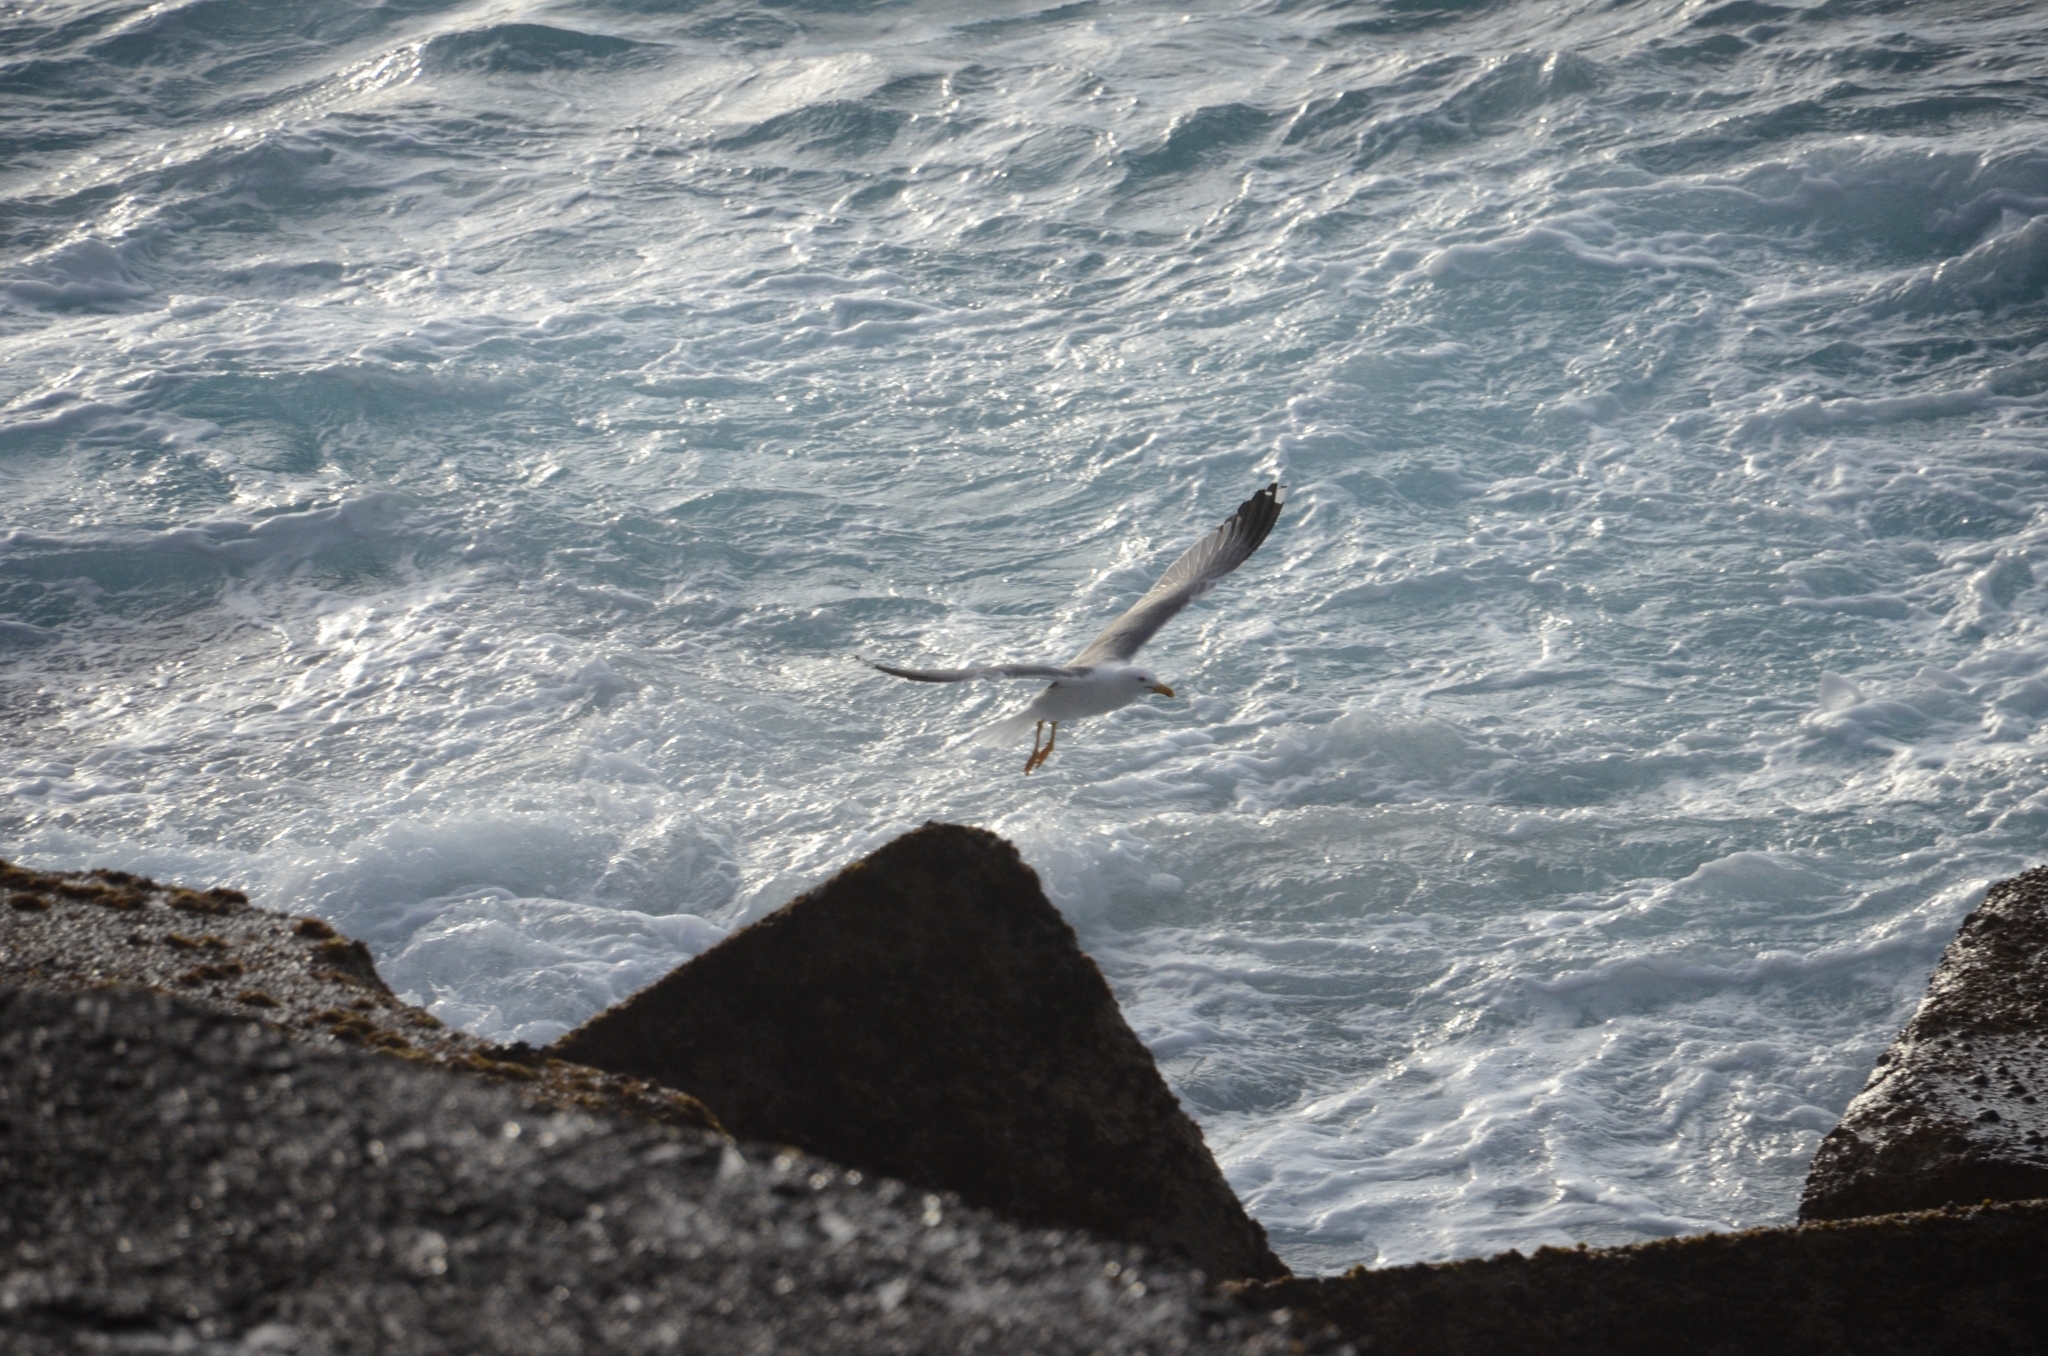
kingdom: Animalia
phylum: Chordata
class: Aves
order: Charadriiformes
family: Laridae
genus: Larus
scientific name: Larus michahellis
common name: Yellow-legged gull
